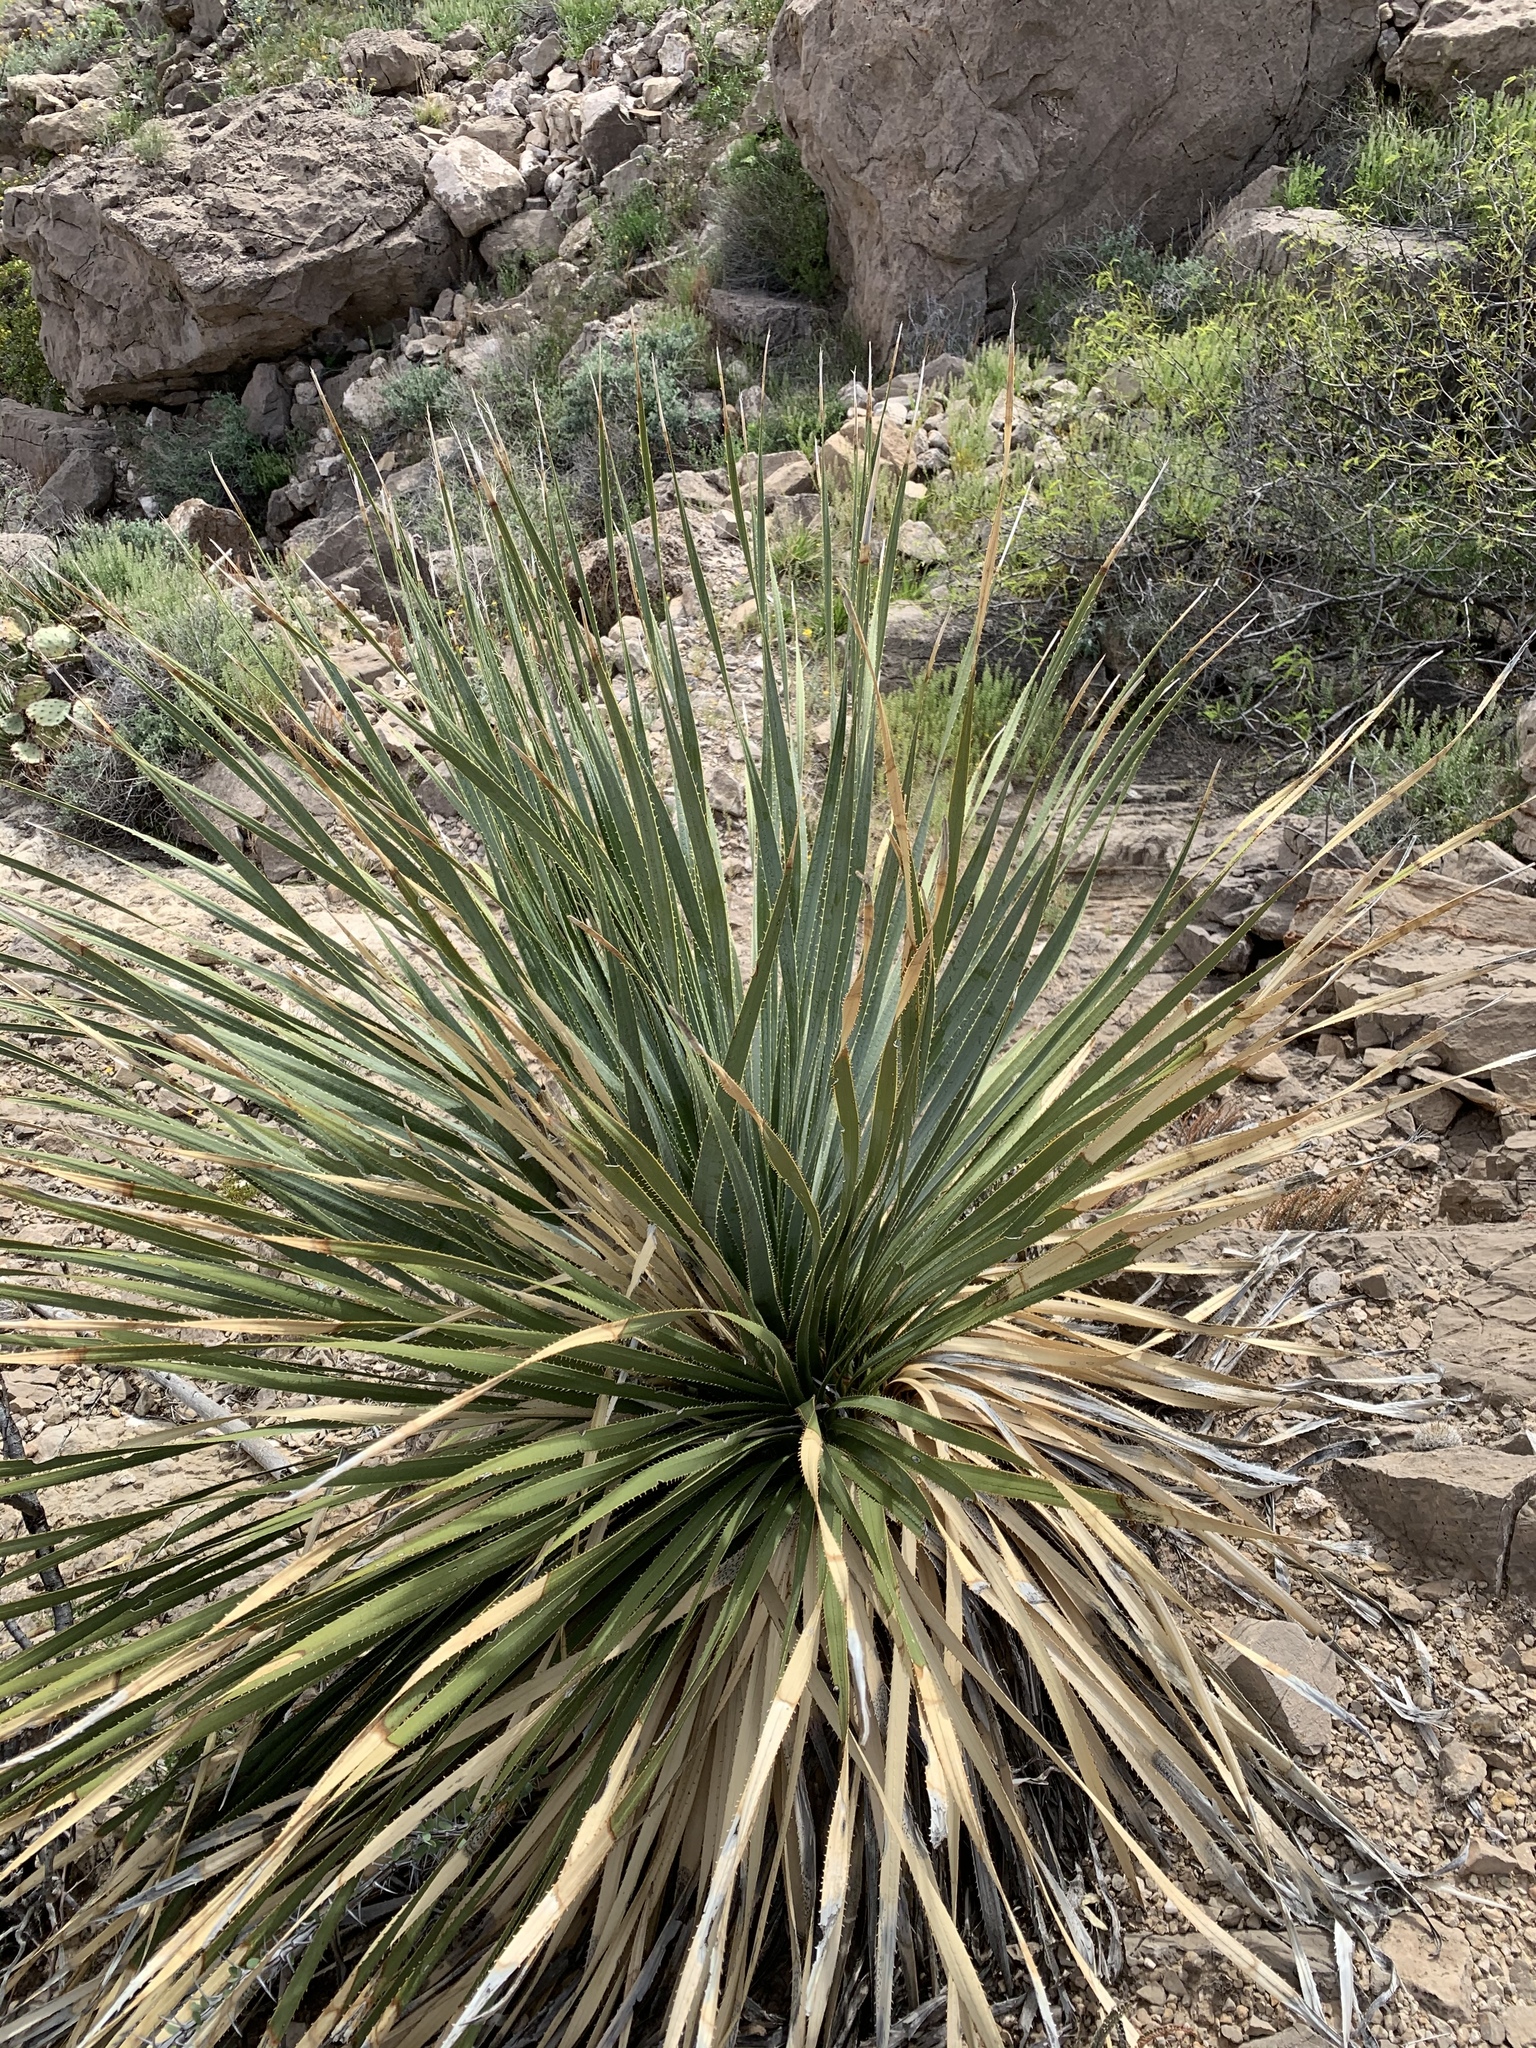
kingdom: Plantae
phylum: Tracheophyta
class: Liliopsida
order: Asparagales
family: Asparagaceae
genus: Dasylirion
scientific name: Dasylirion wheeleri
